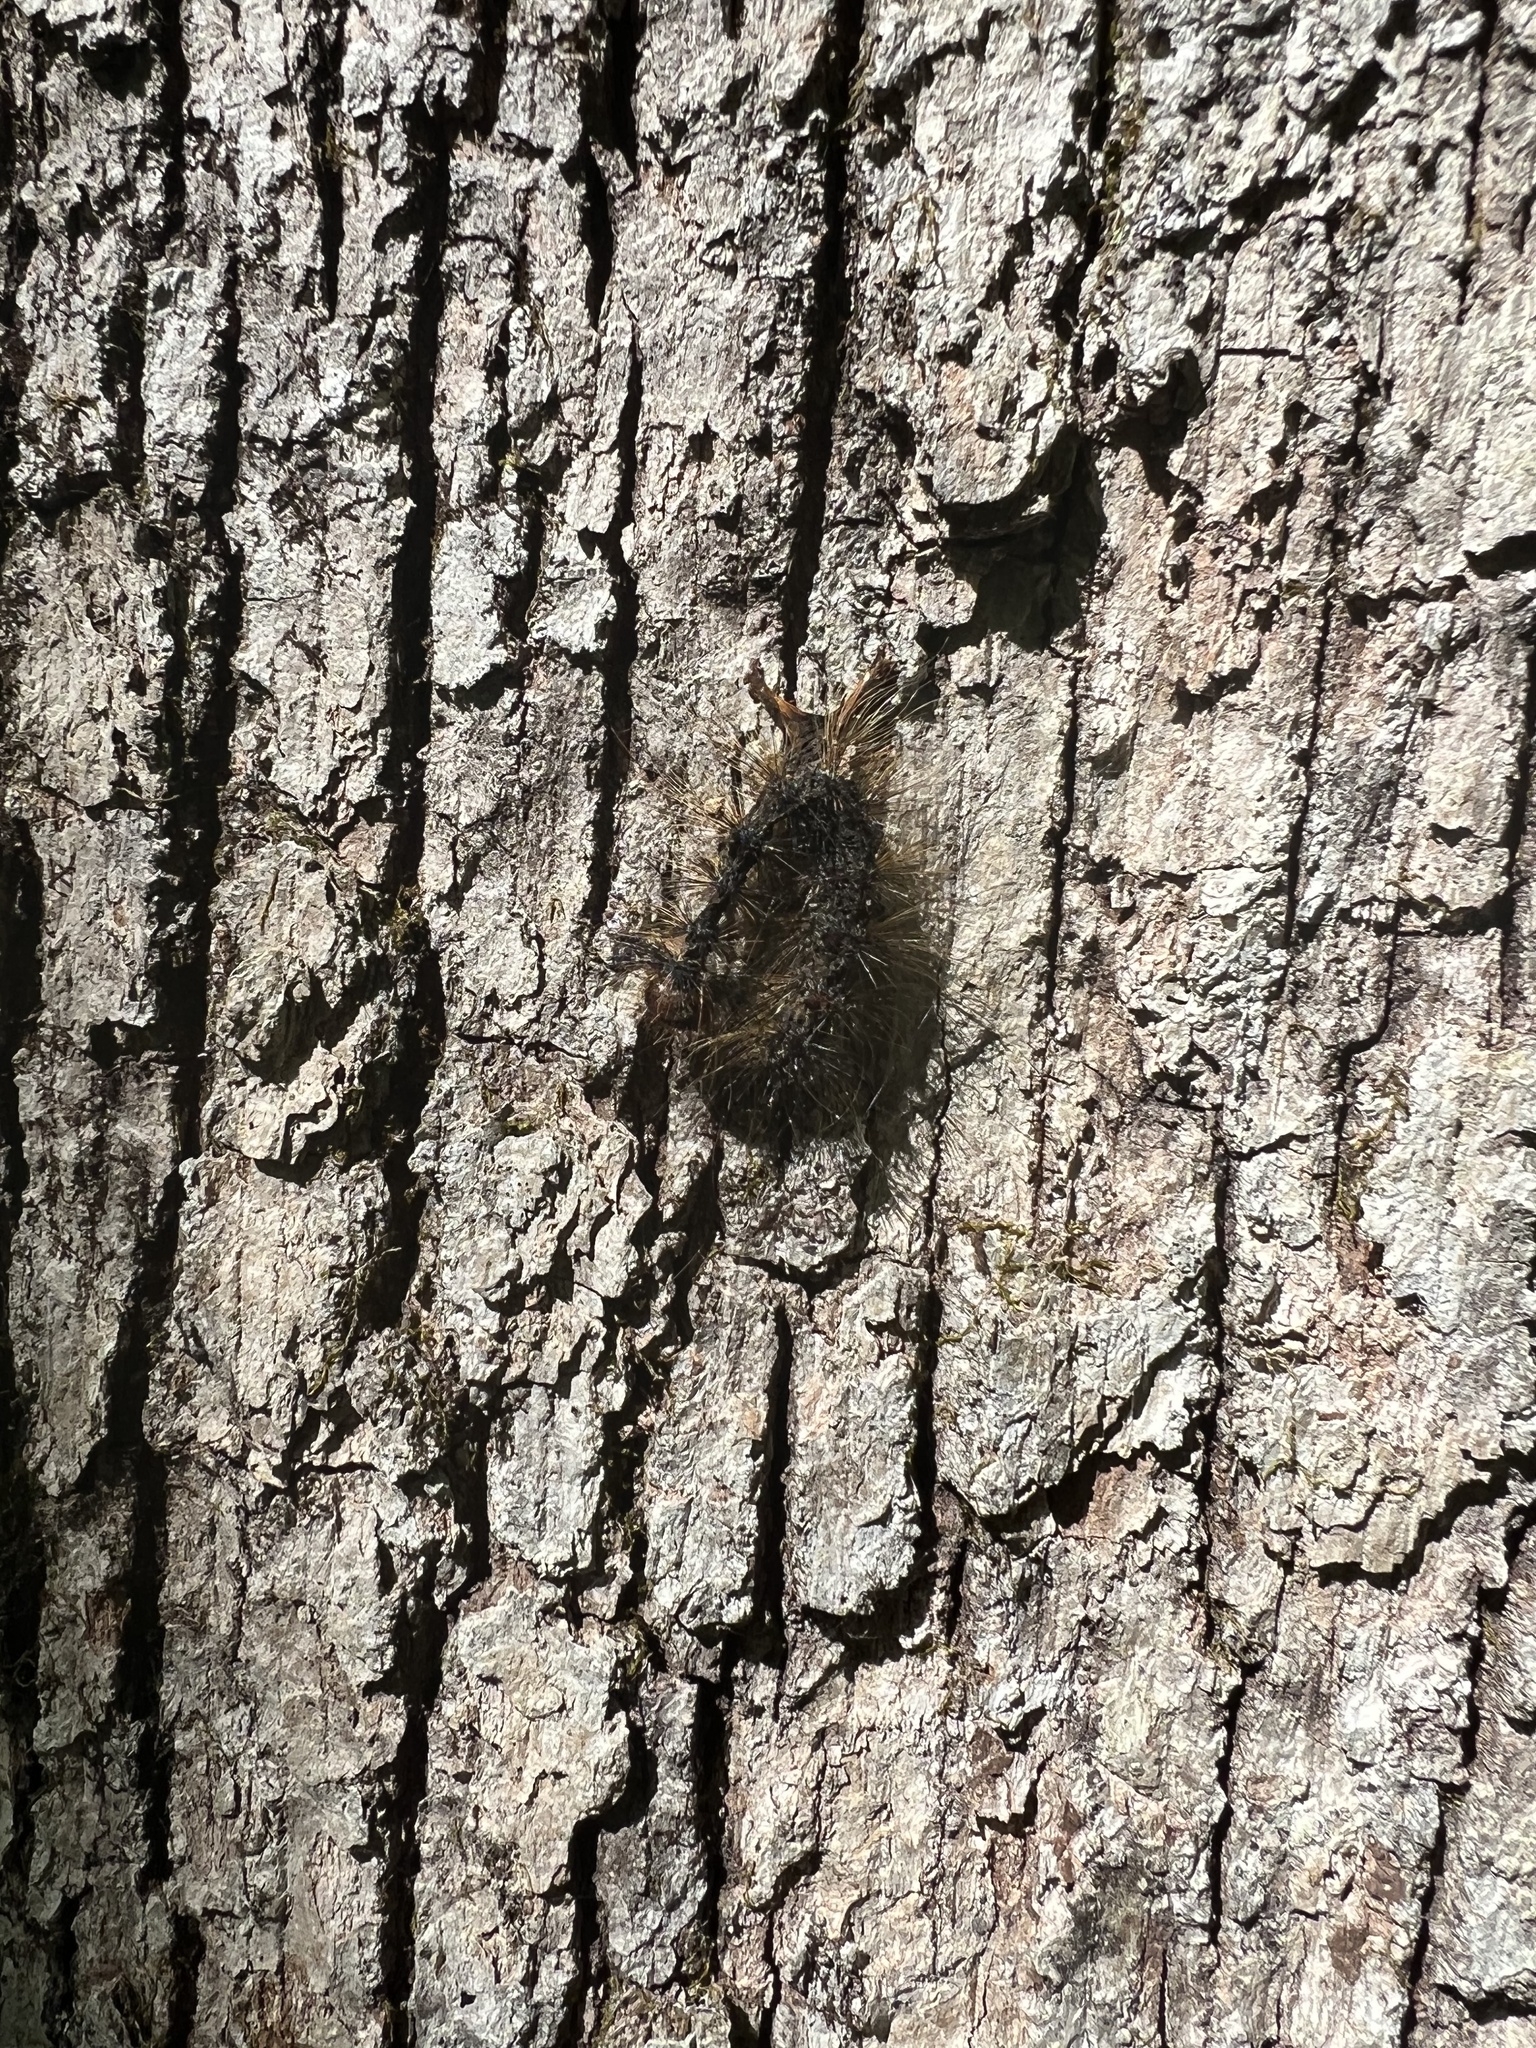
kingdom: Animalia
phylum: Arthropoda
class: Insecta
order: Lepidoptera
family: Erebidae
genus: Lymantria
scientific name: Lymantria dispar
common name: Gypsy moth
